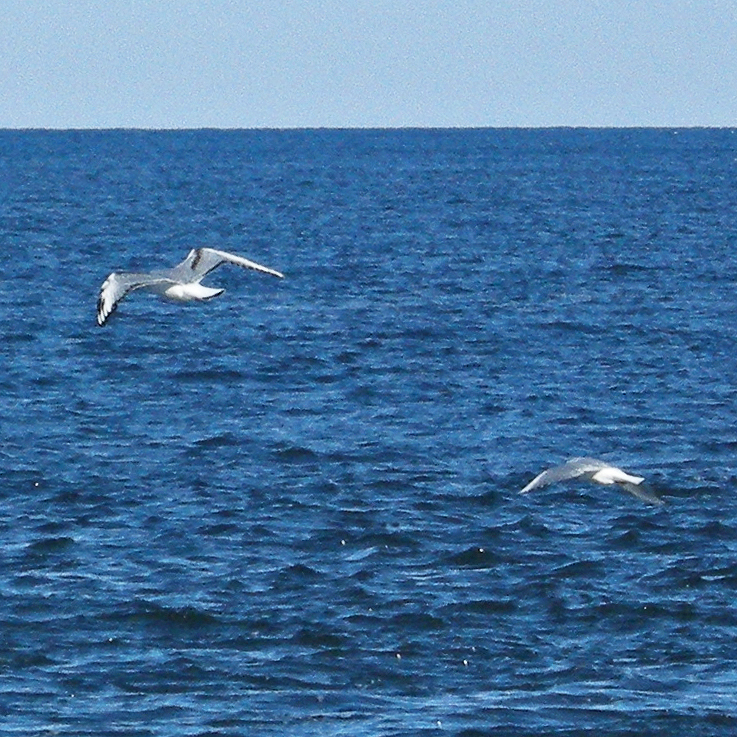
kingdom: Animalia
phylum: Chordata
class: Aves
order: Charadriiformes
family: Laridae
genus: Chroicocephalus
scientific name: Chroicocephalus philadelphia
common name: Bonaparte's gull
